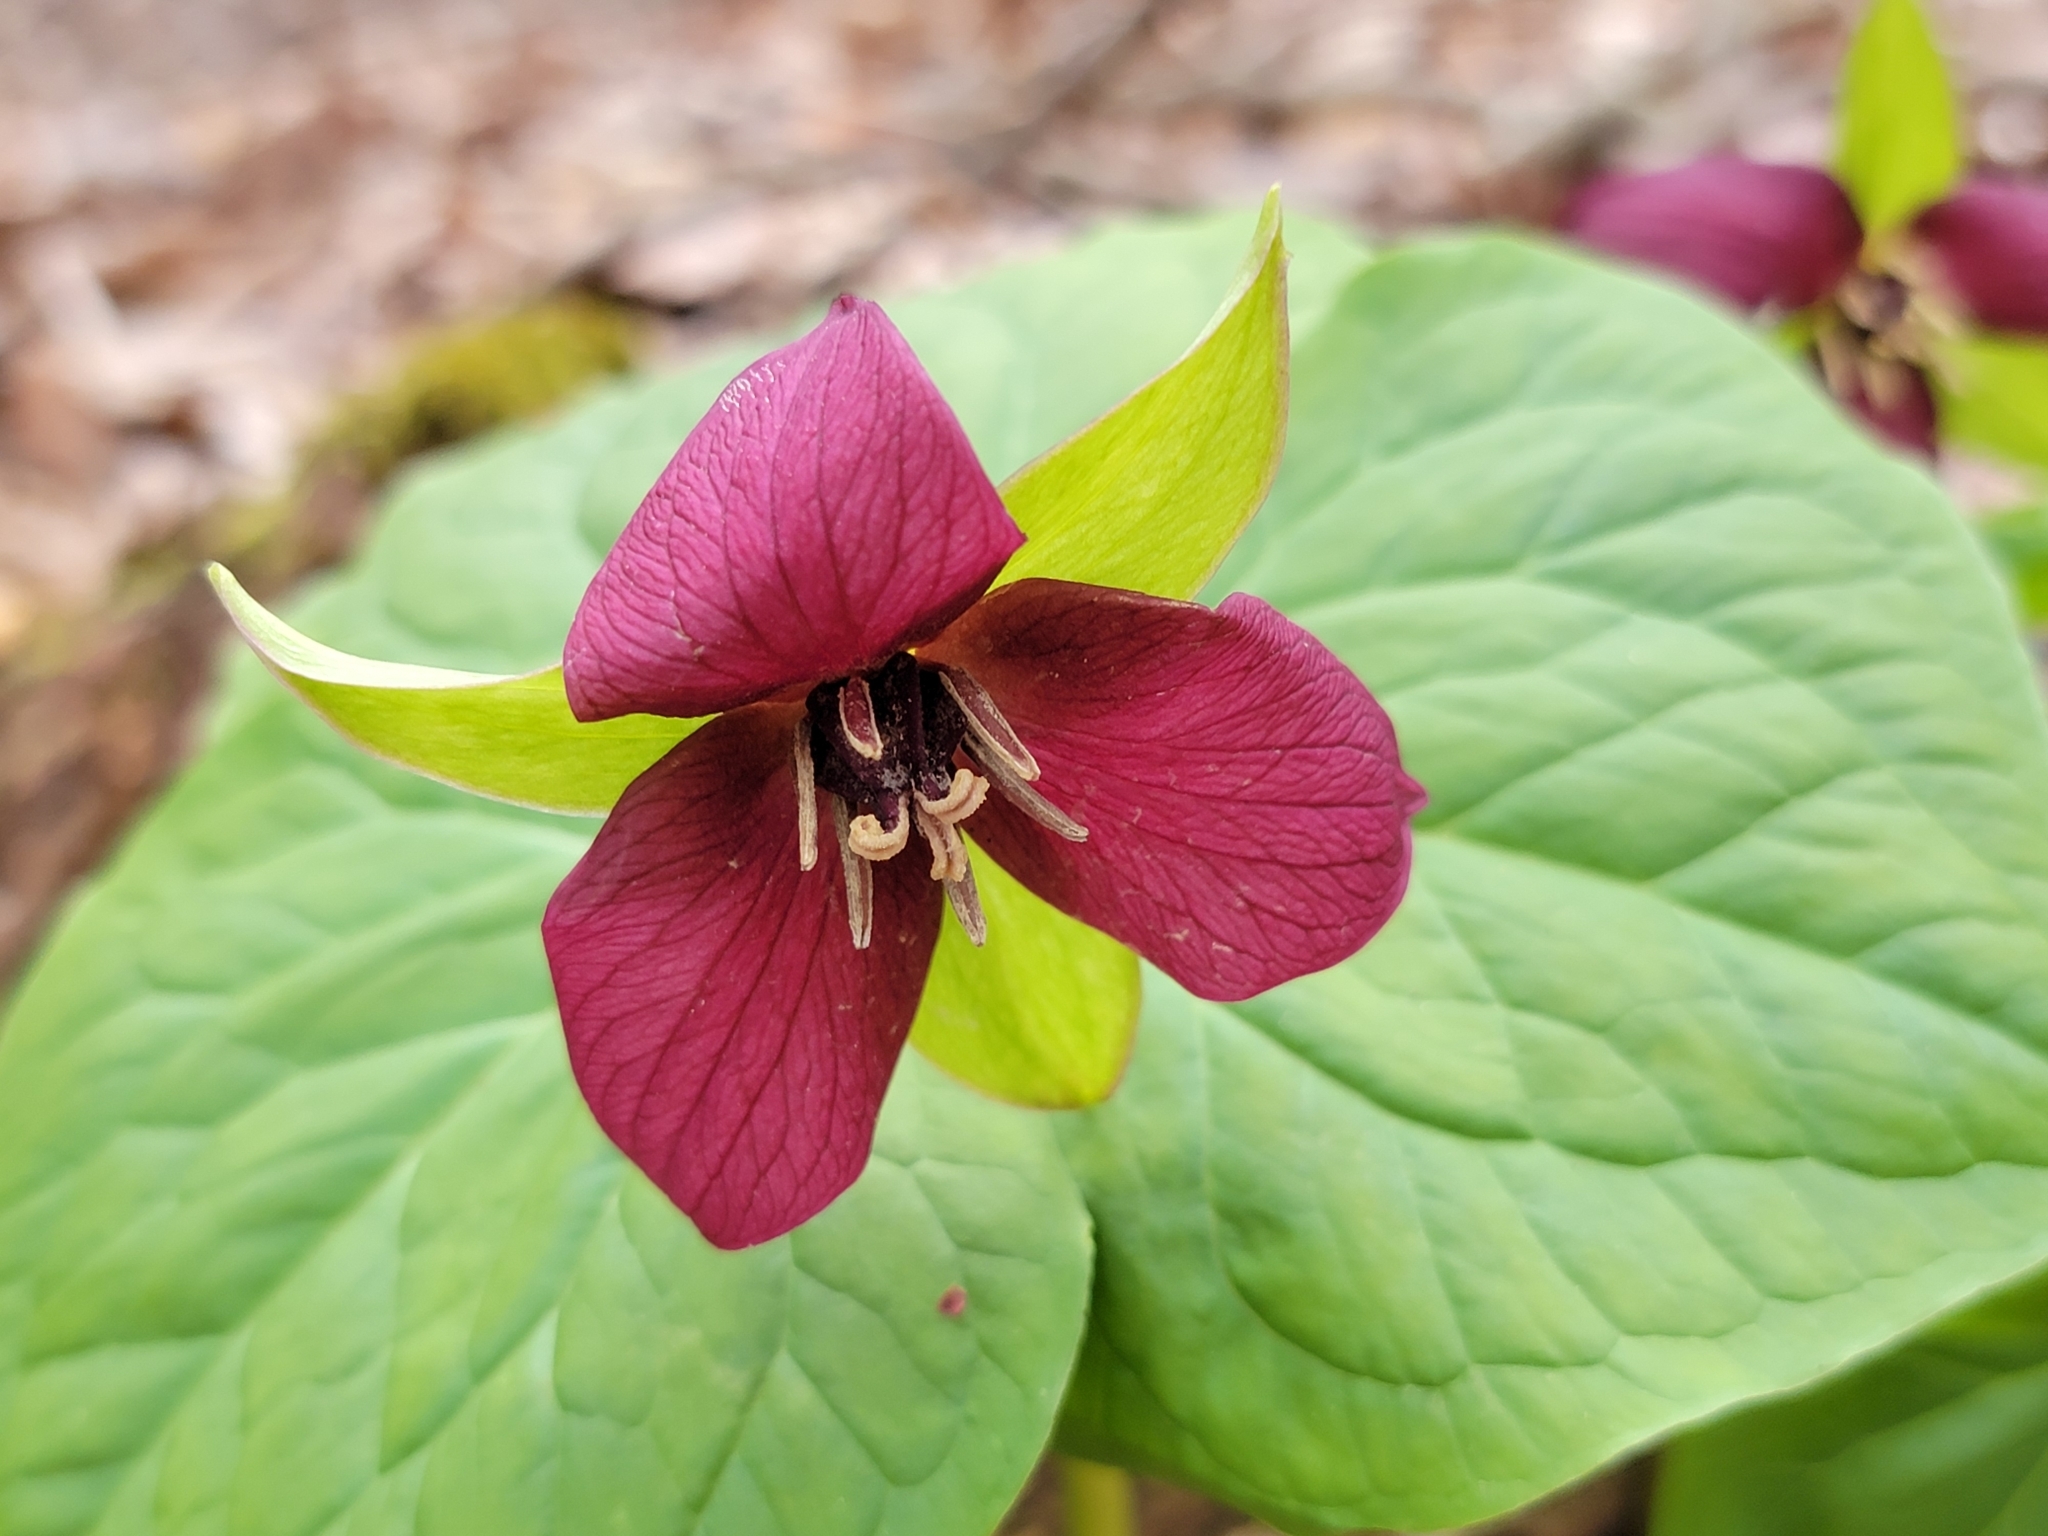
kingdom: Plantae
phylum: Tracheophyta
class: Liliopsida
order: Liliales
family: Melanthiaceae
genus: Trillium
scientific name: Trillium erectum
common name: Purple trillium
